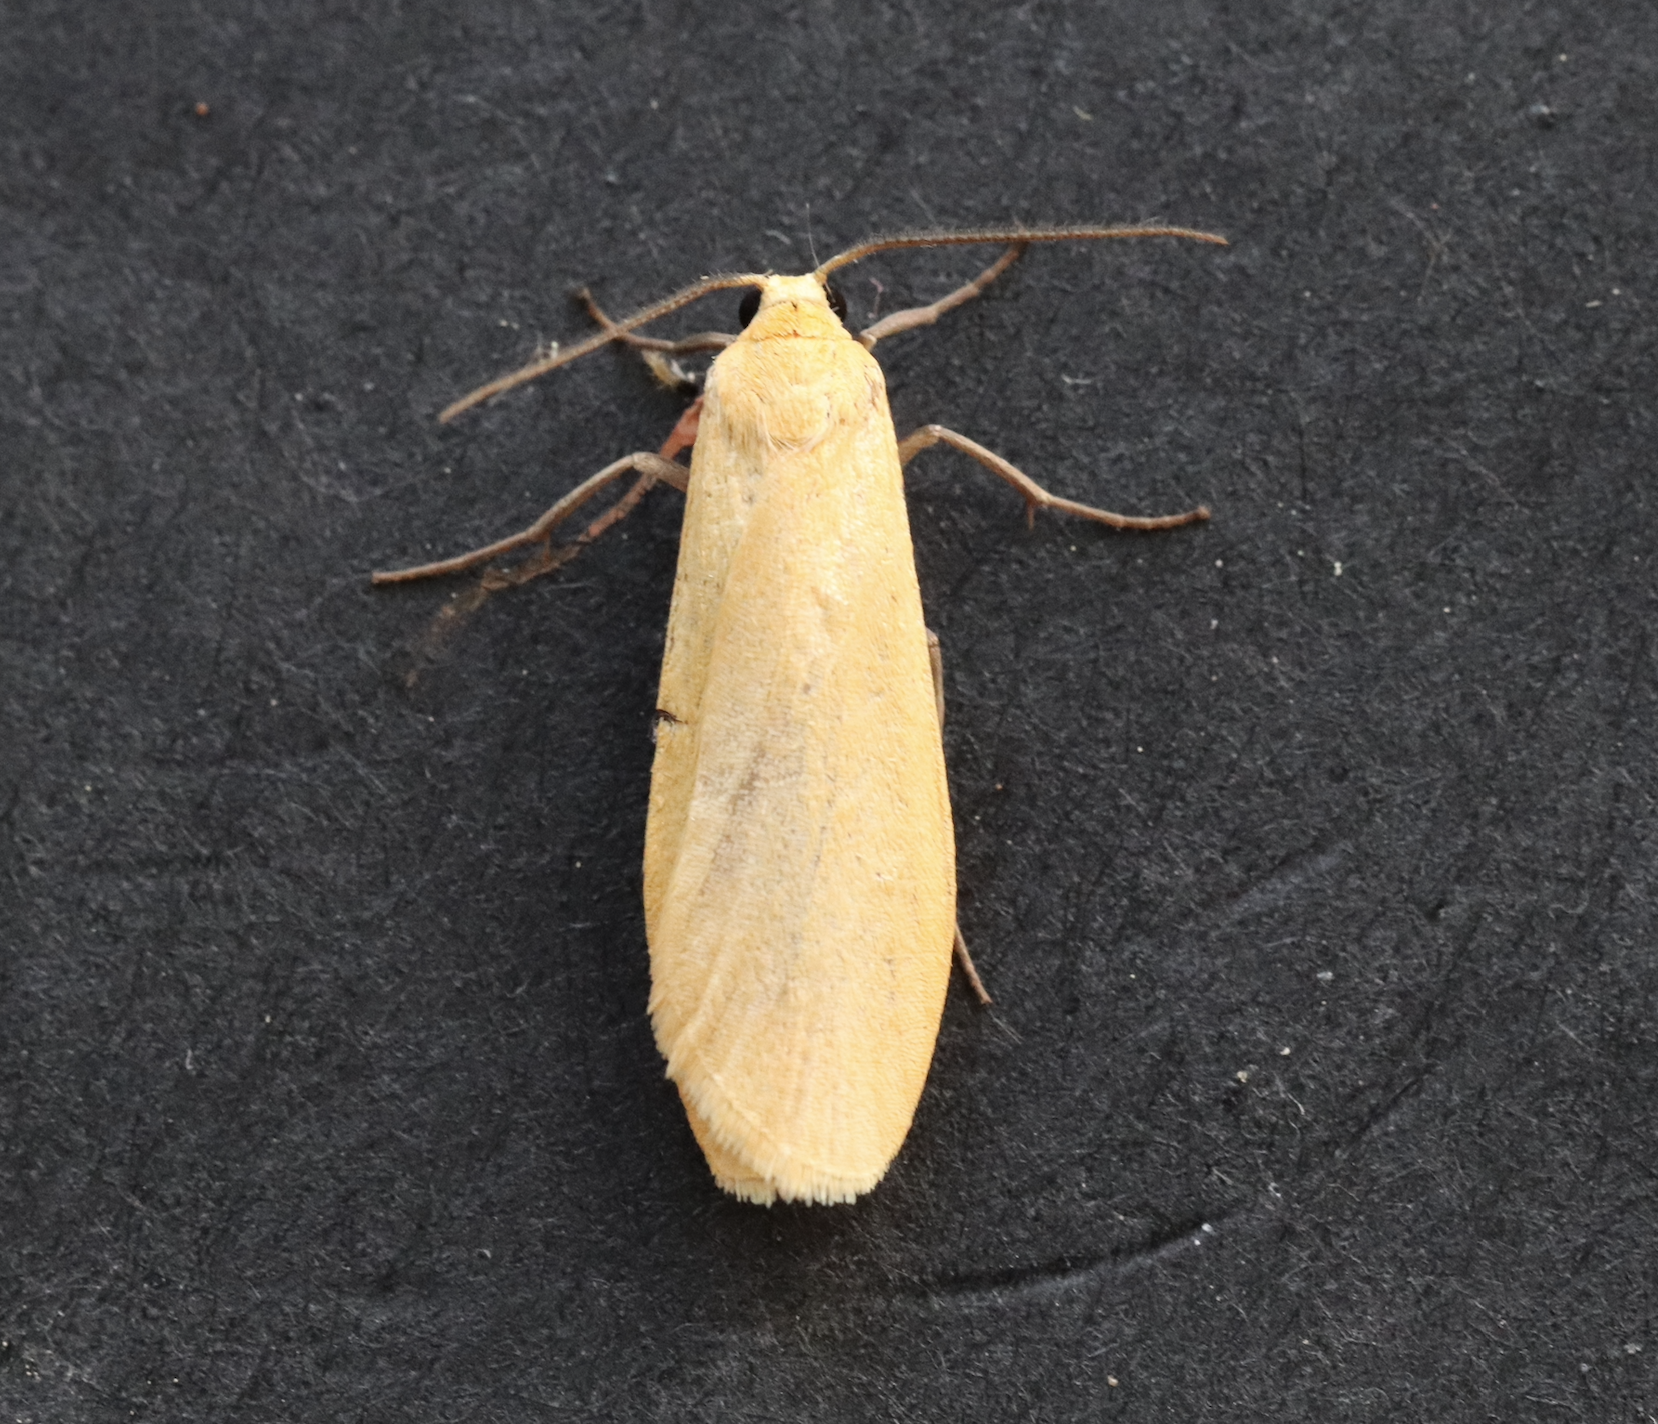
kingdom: Animalia
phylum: Arthropoda
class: Insecta
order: Lepidoptera
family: Erebidae
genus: Wittia
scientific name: Wittia sororcula
